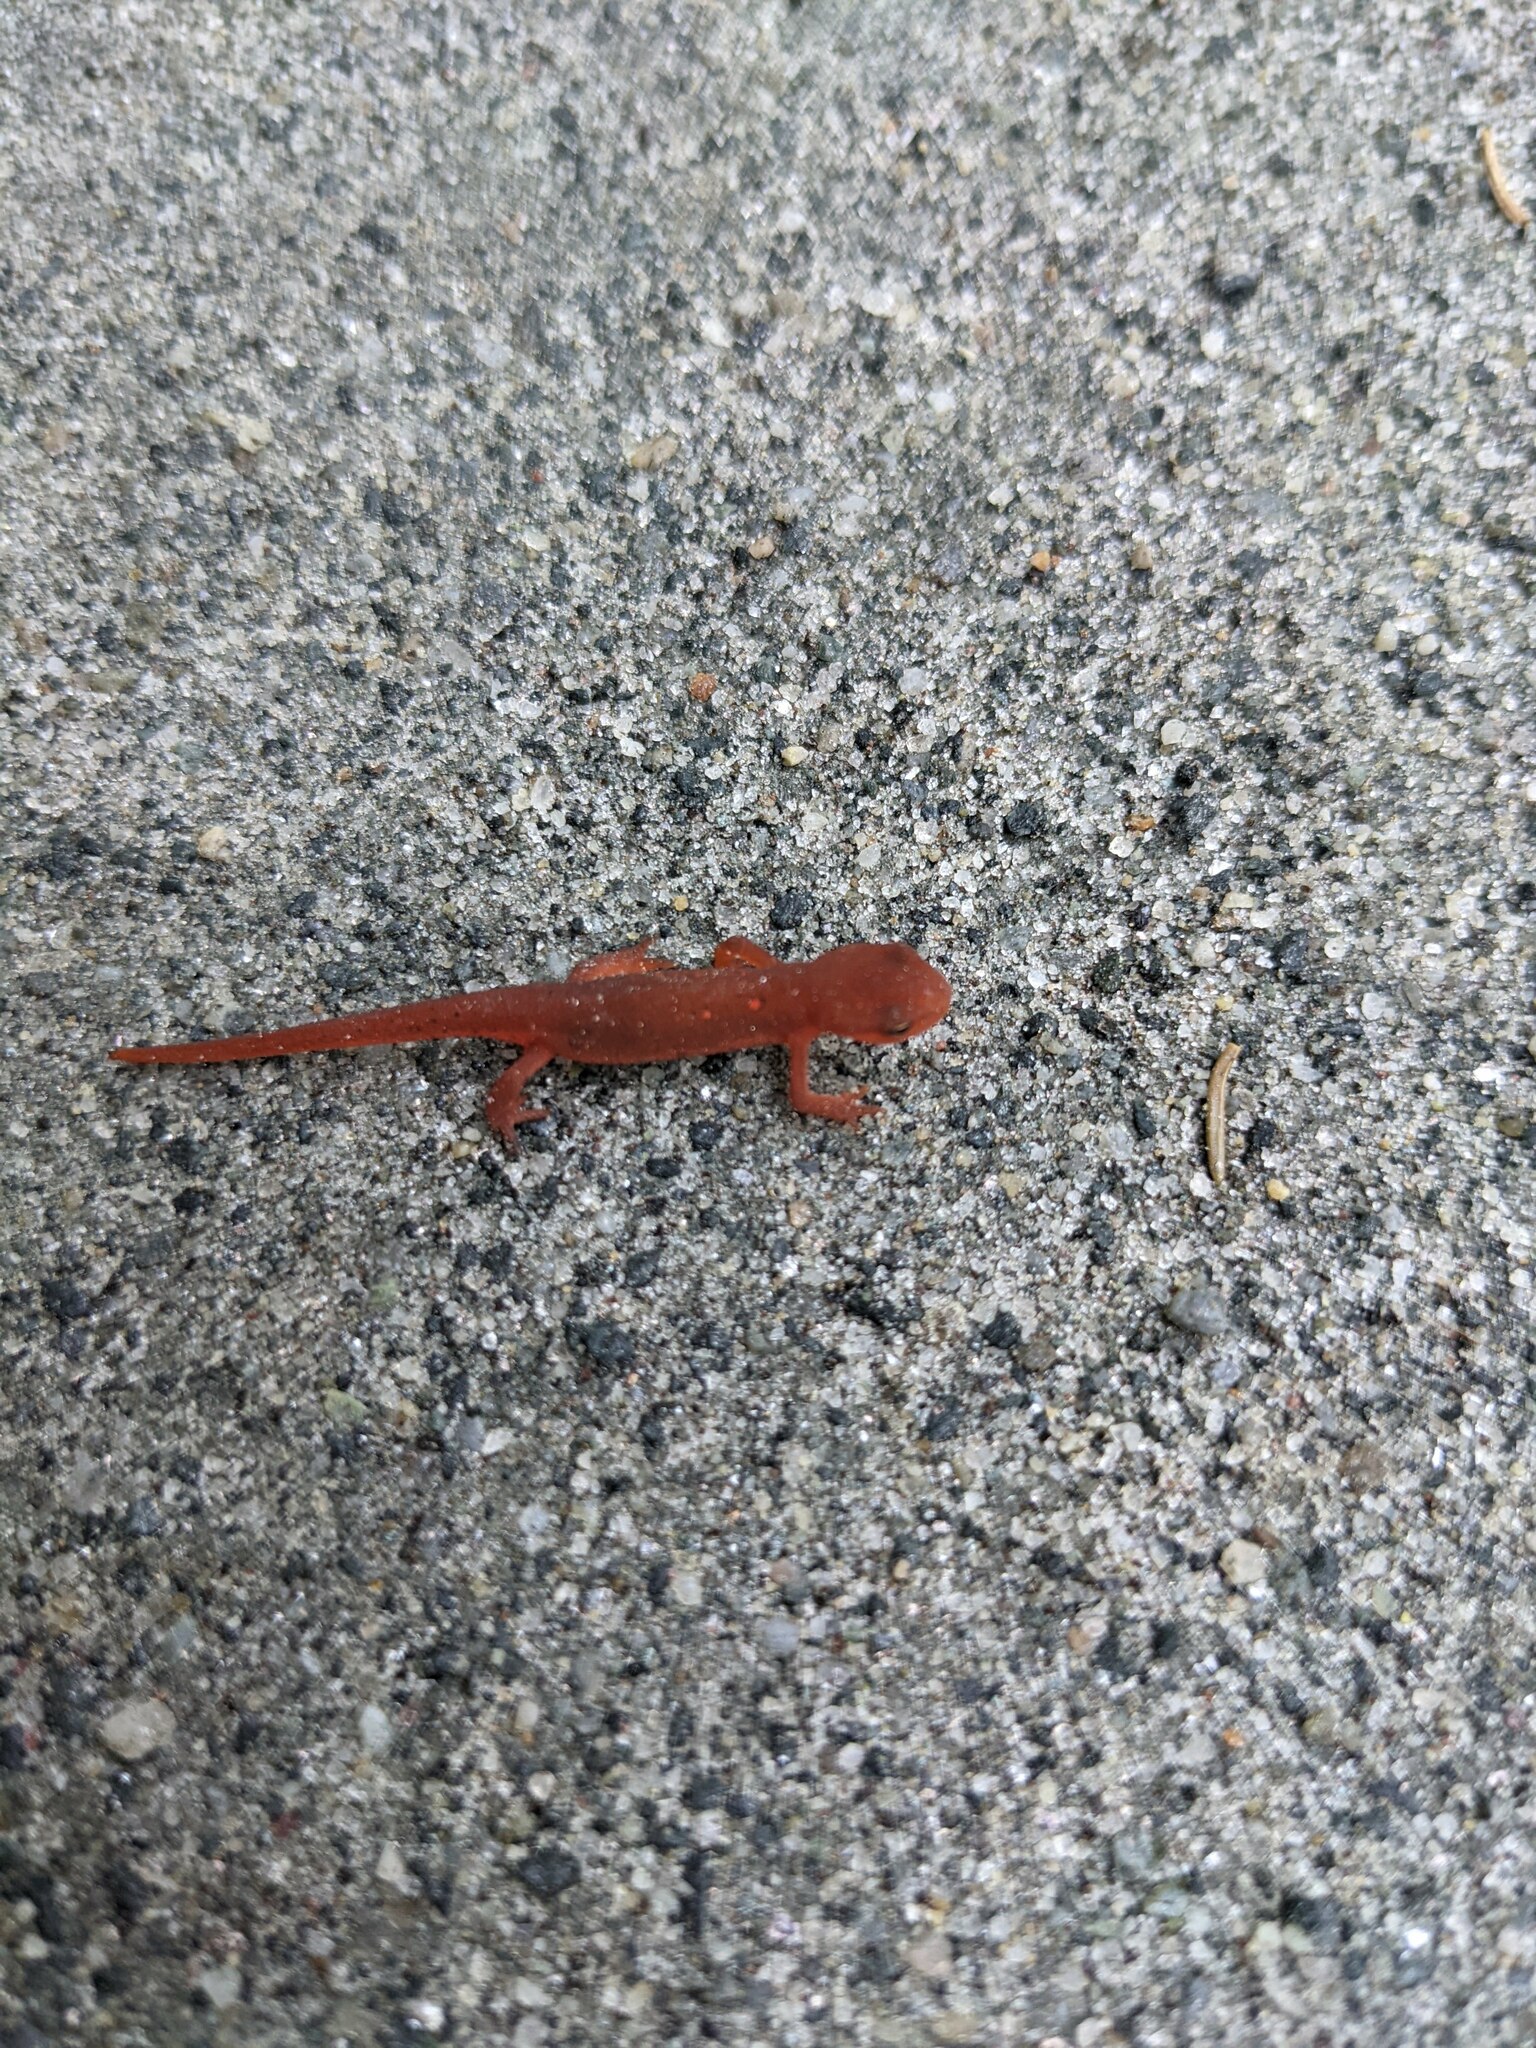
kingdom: Animalia
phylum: Chordata
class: Amphibia
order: Caudata
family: Salamandridae
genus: Notophthalmus
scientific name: Notophthalmus viridescens
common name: Eastern newt
